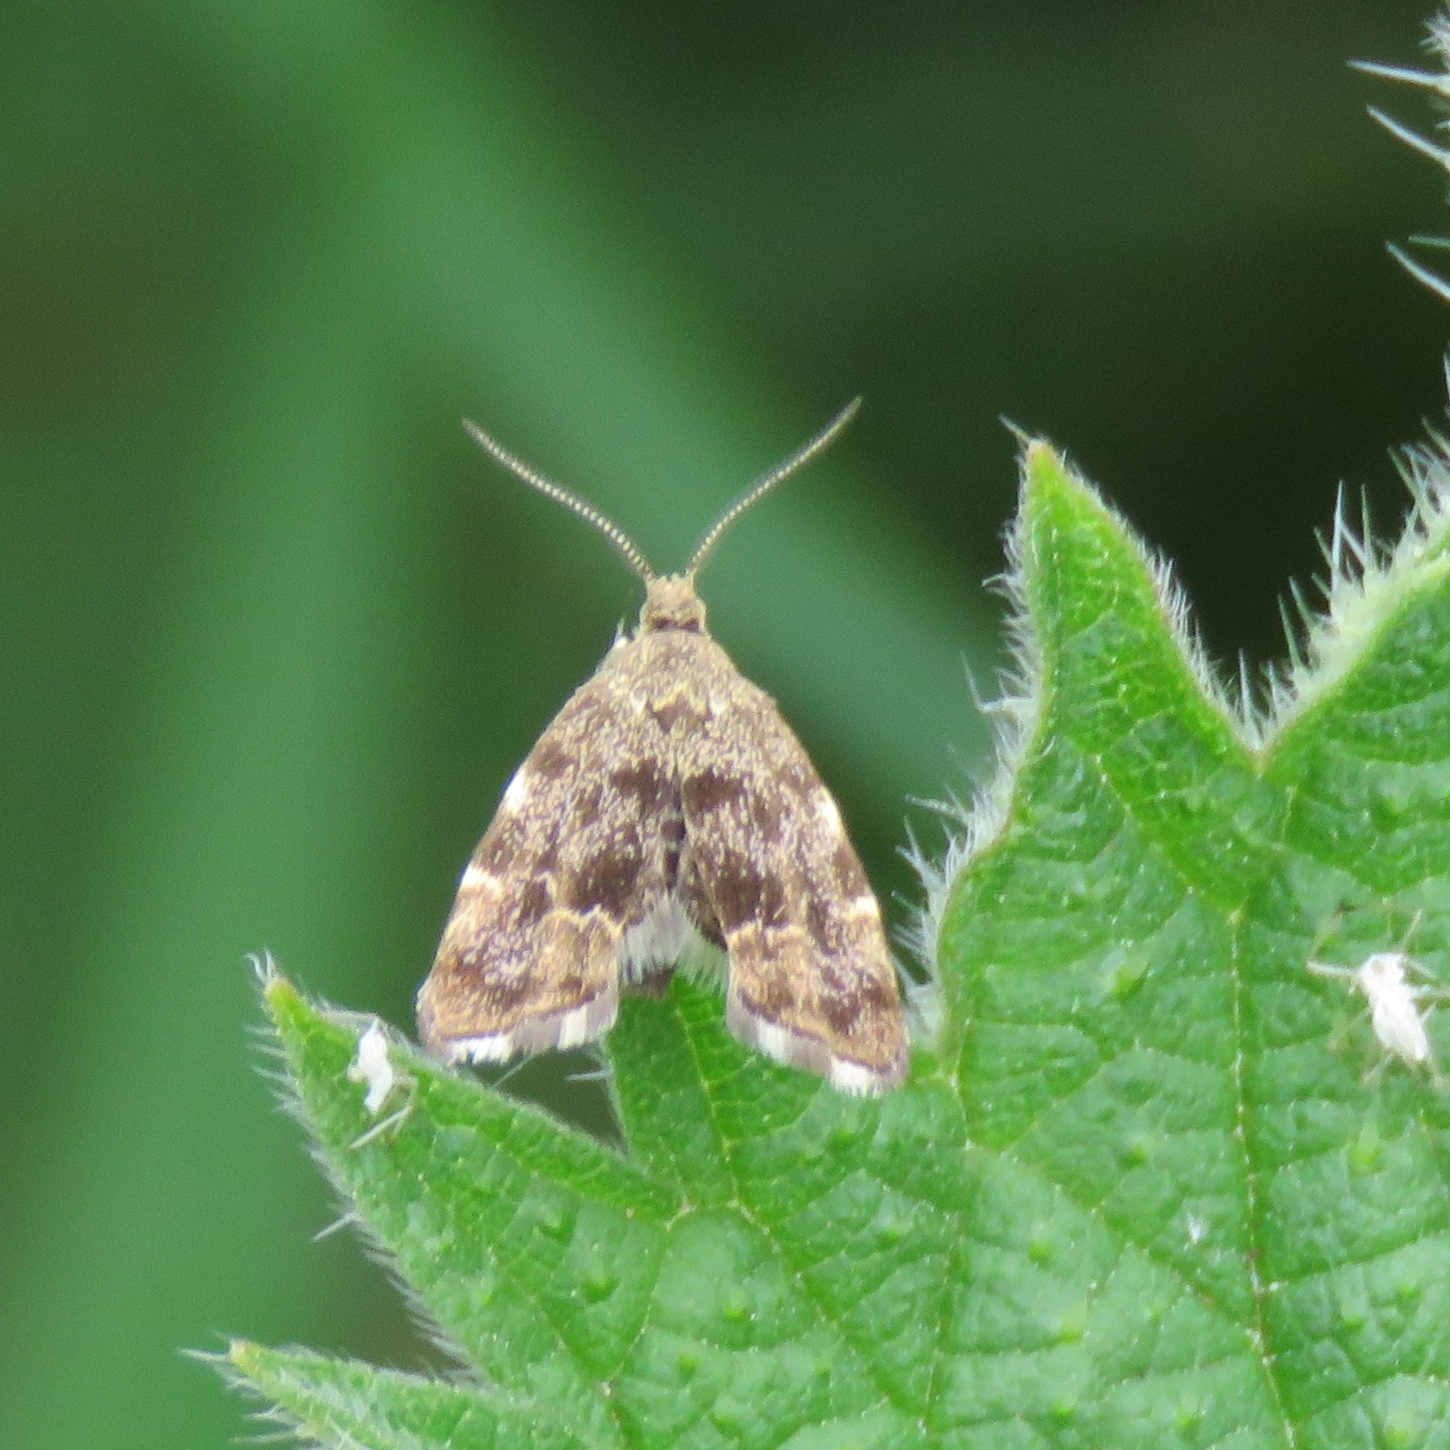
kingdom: Animalia
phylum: Arthropoda
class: Insecta
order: Lepidoptera
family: Choreutidae
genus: Anthophila
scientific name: Anthophila fabriciana
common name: Nettle-tap
